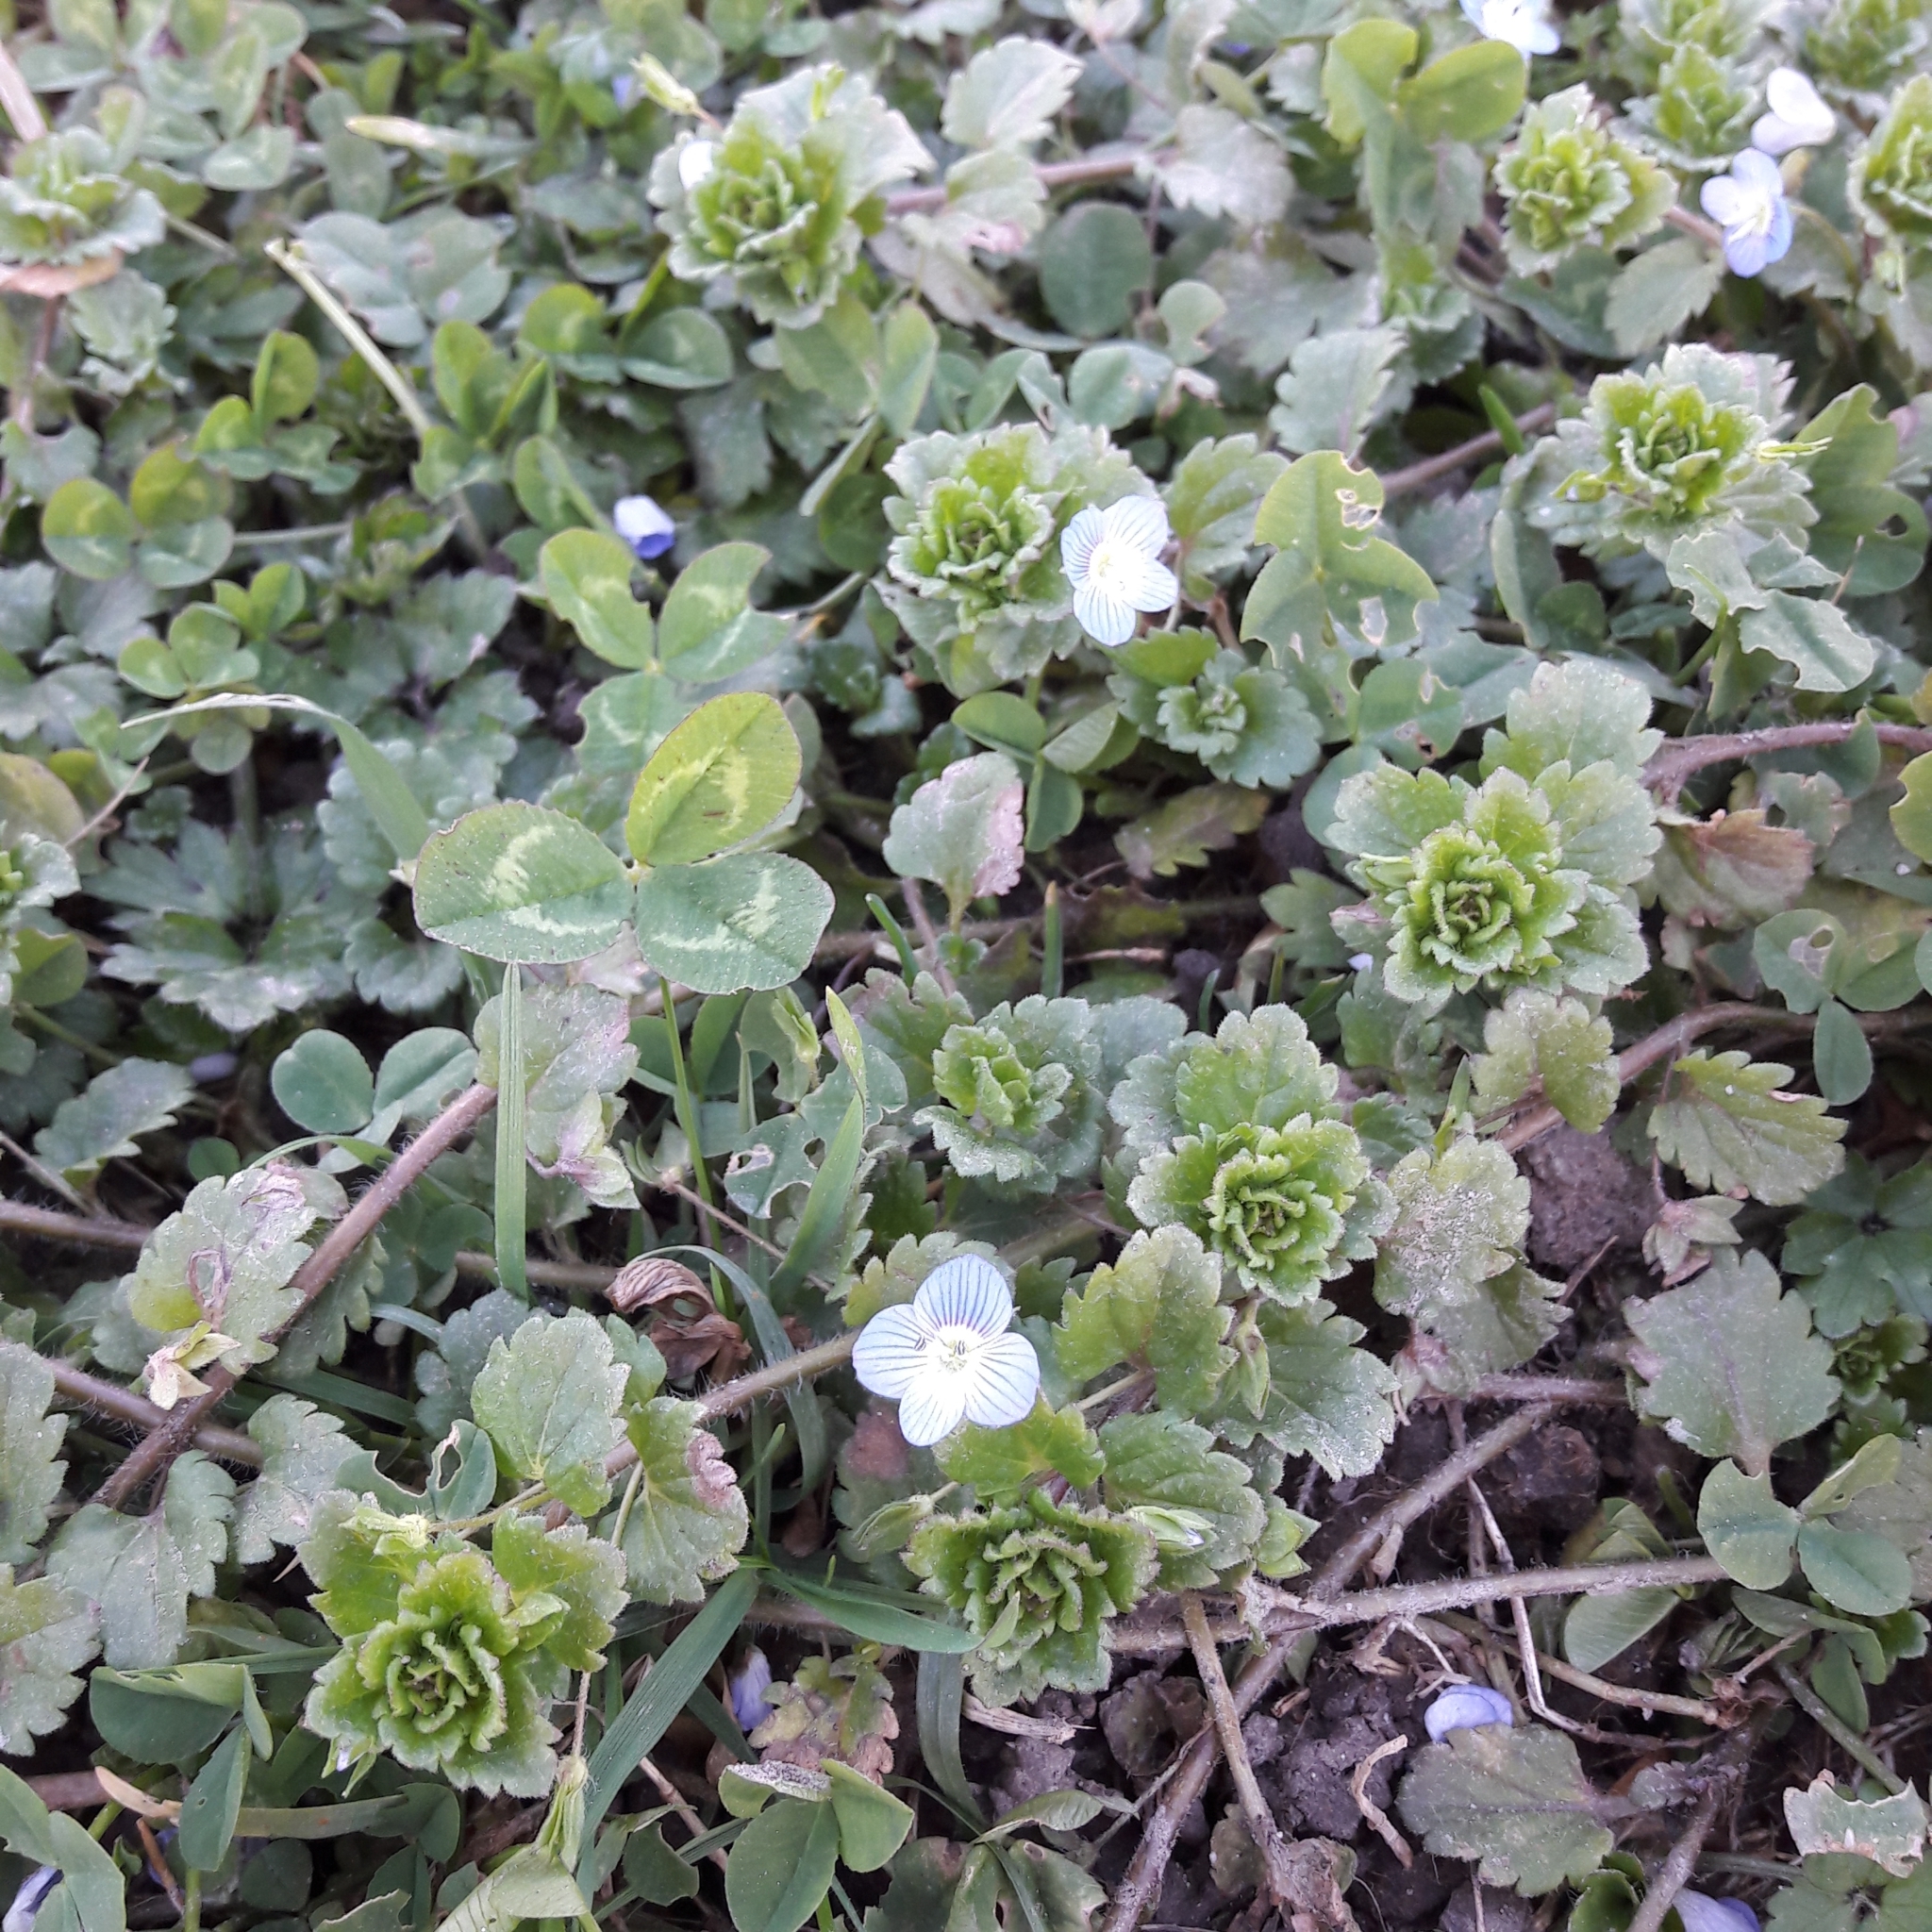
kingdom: Plantae
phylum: Tracheophyta
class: Magnoliopsida
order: Lamiales
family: Plantaginaceae
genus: Veronica
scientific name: Veronica persica
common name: Common field-speedwell
